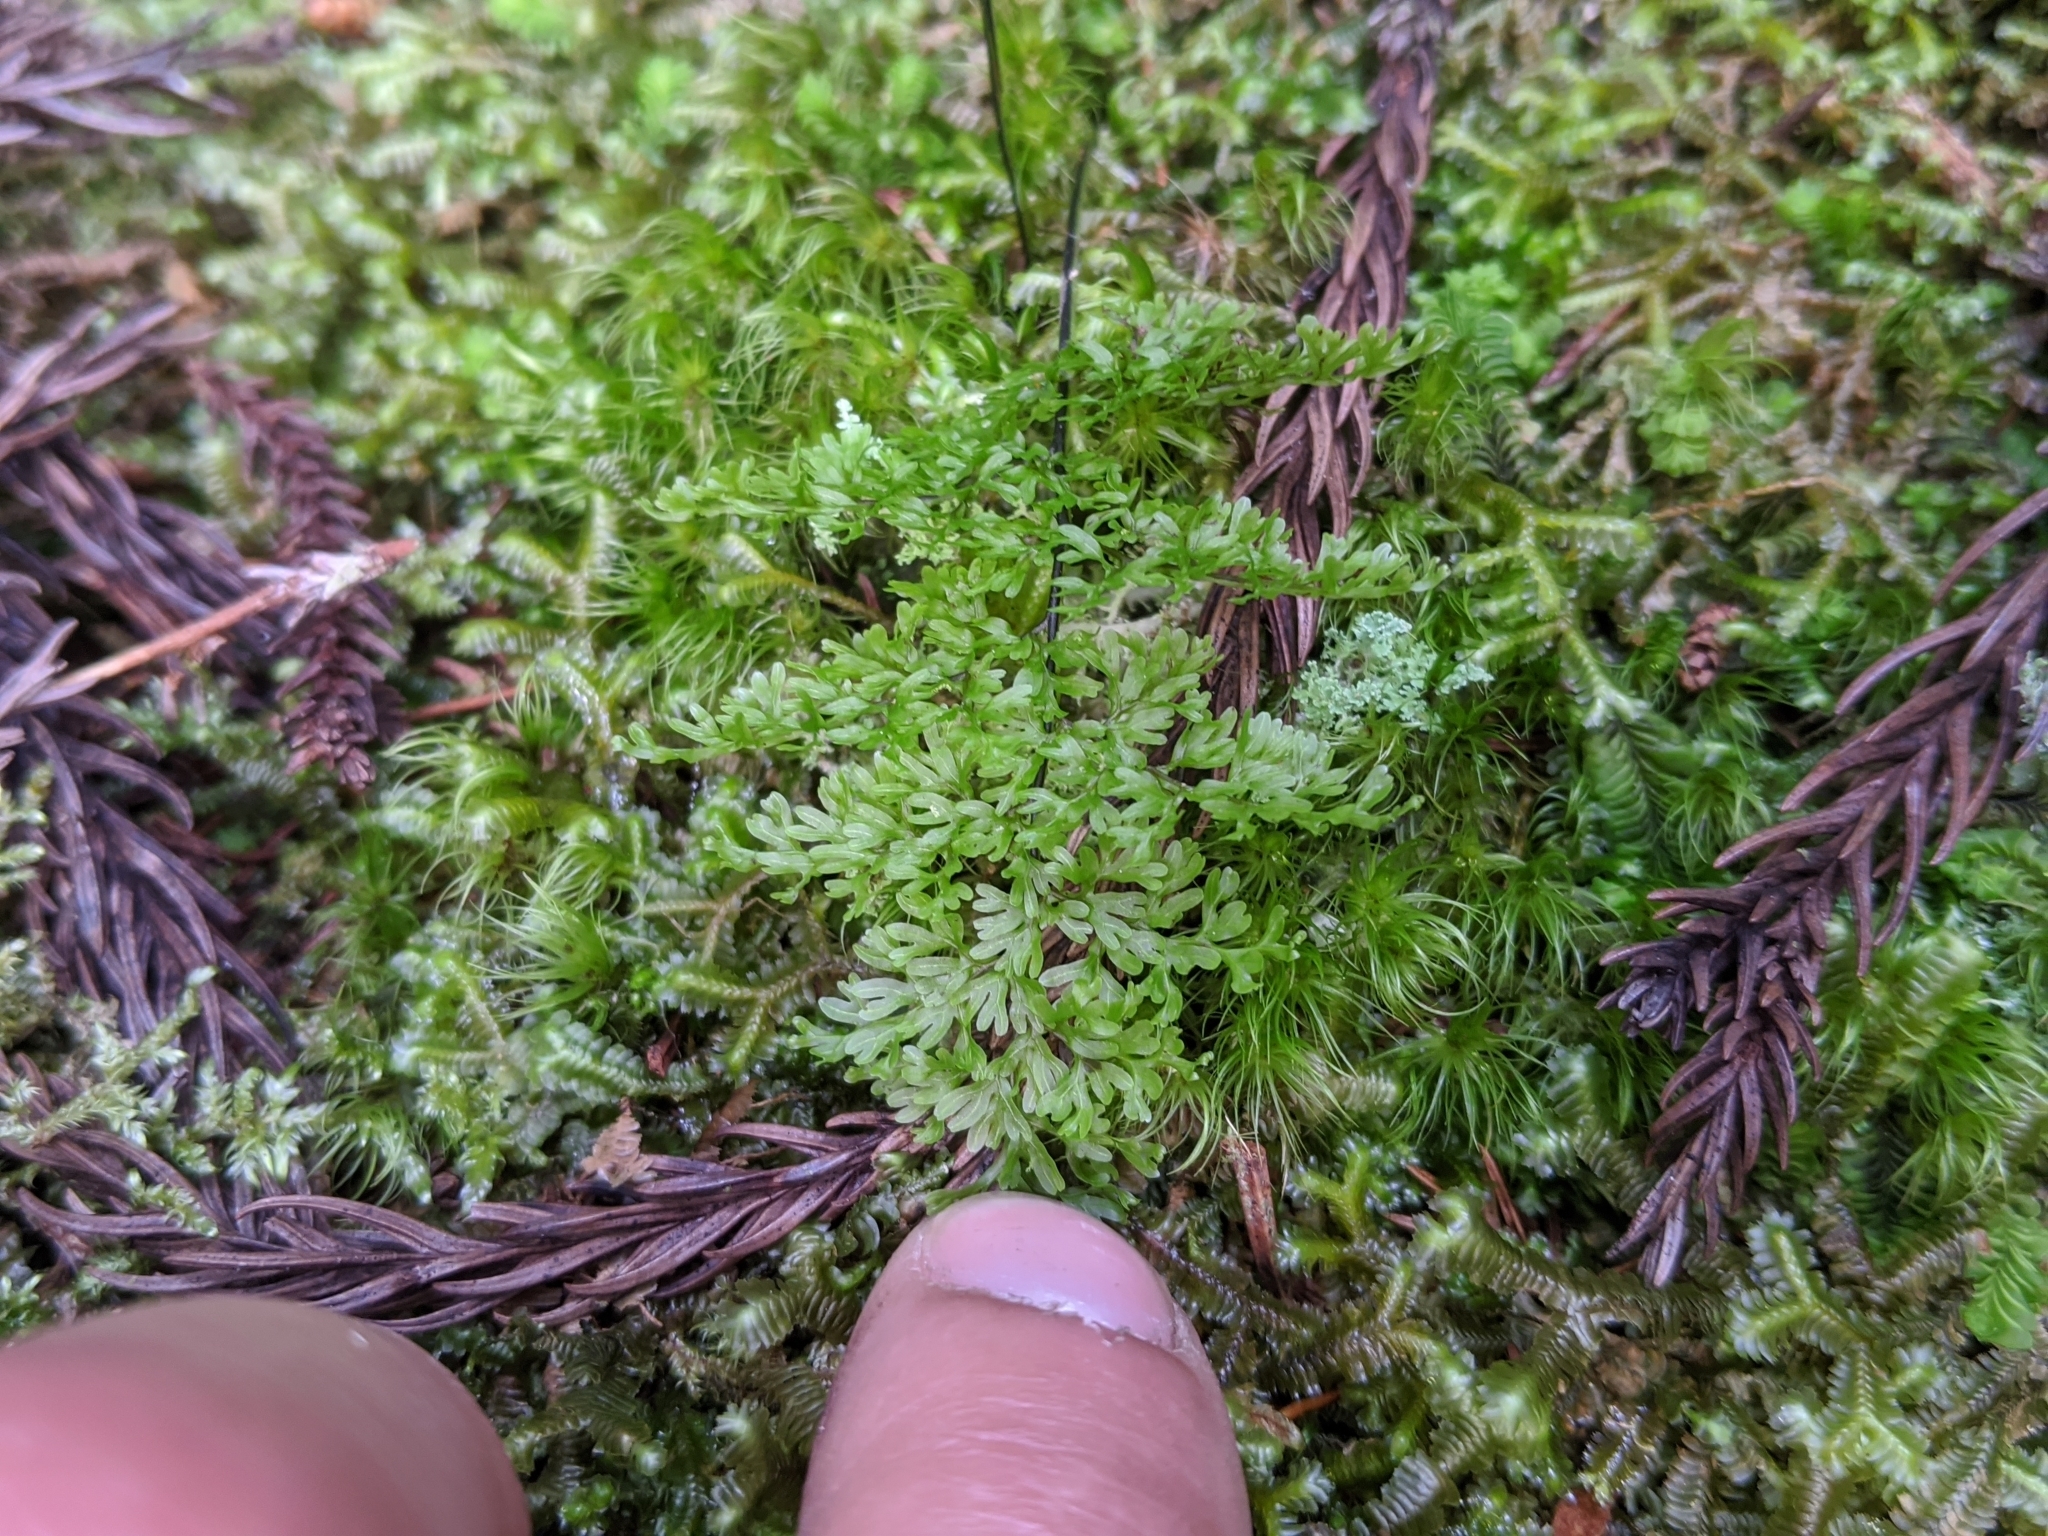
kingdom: Plantae
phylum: Tracheophyta
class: Polypodiopsida
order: Hymenophyllales
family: Hymenophyllaceae
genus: Callistopteris
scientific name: Callistopteris polyantha
